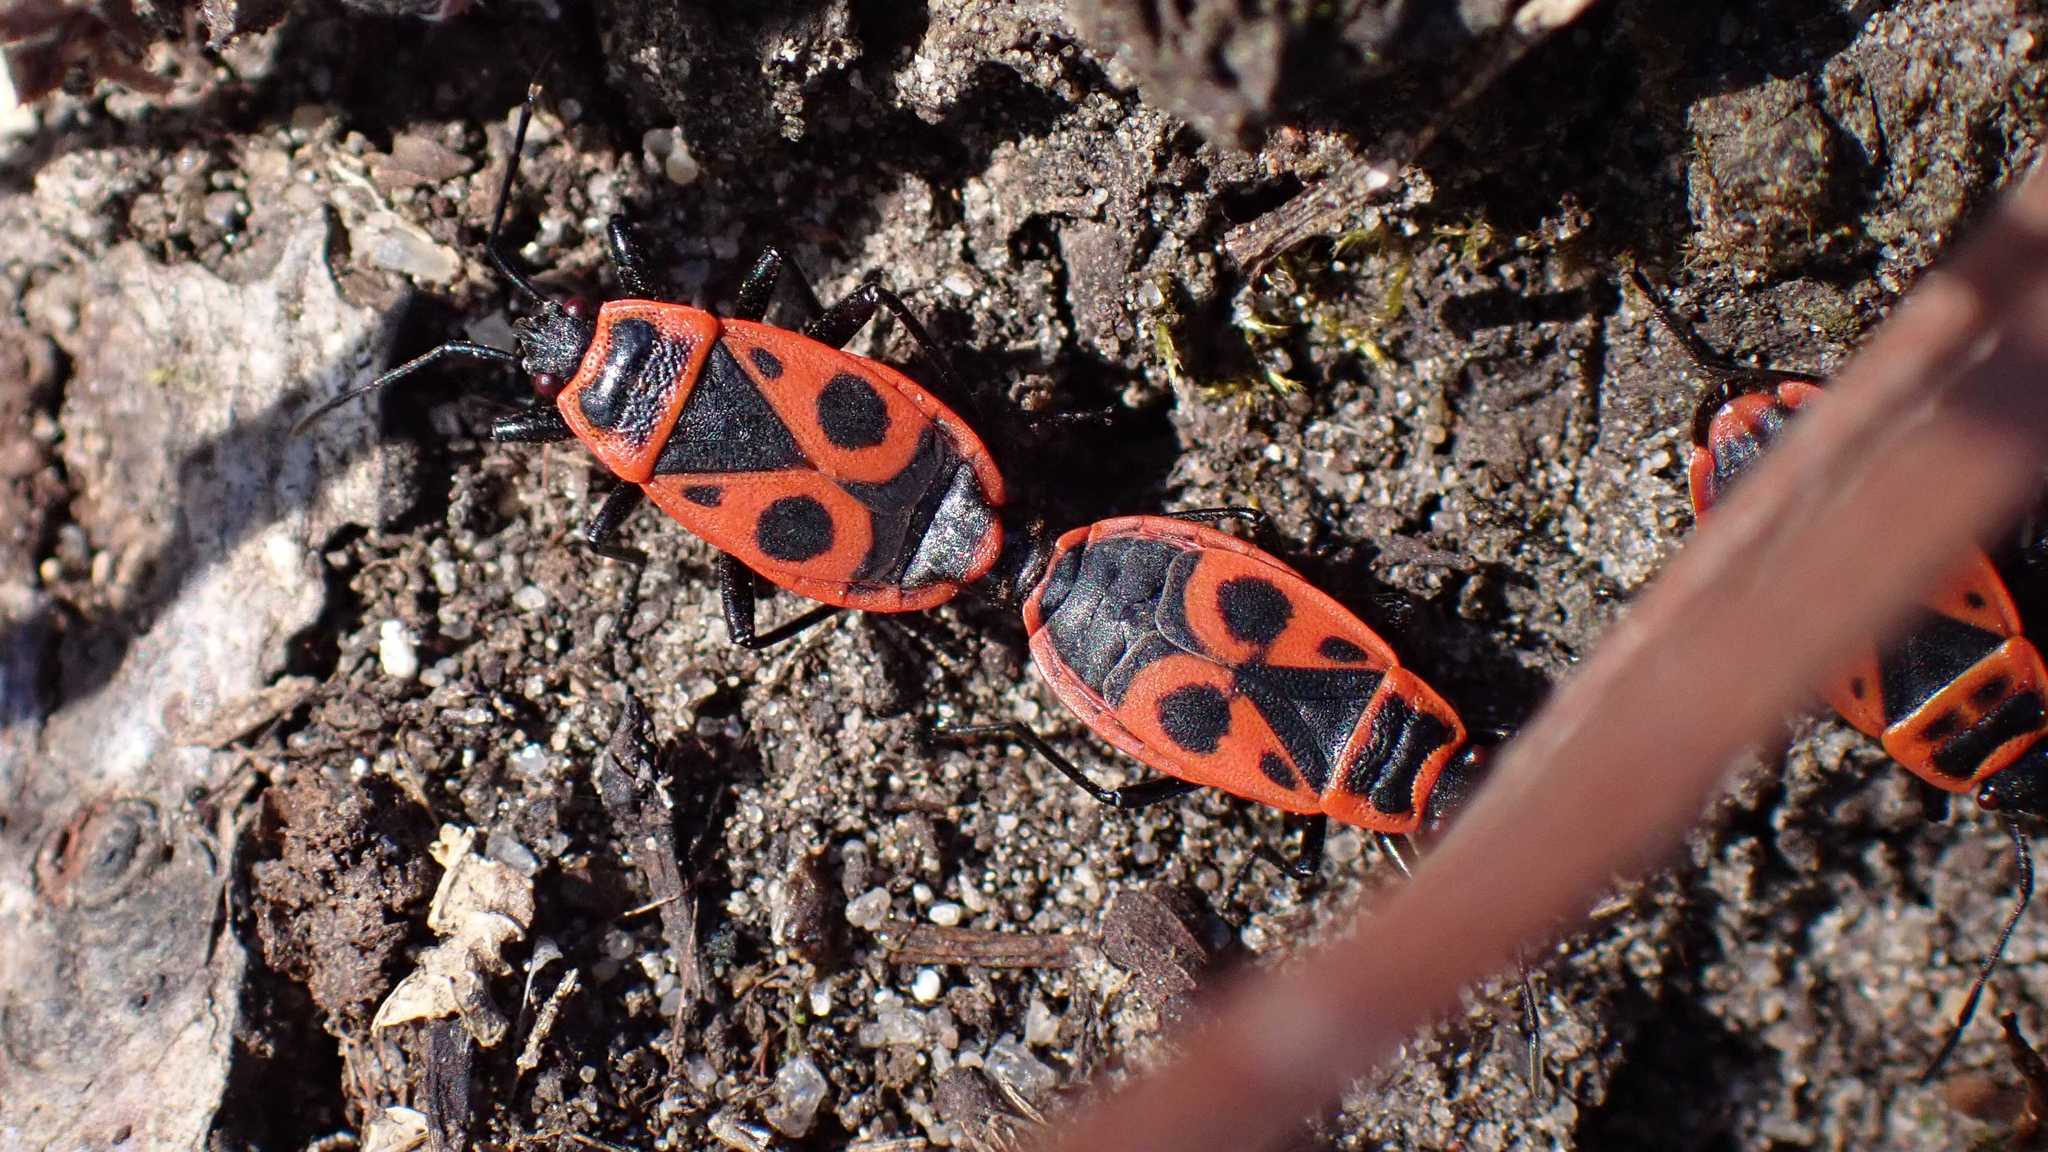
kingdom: Animalia
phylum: Arthropoda
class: Insecta
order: Hemiptera
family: Pyrrhocoridae
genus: Pyrrhocoris
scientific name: Pyrrhocoris apterus
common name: Firebug
